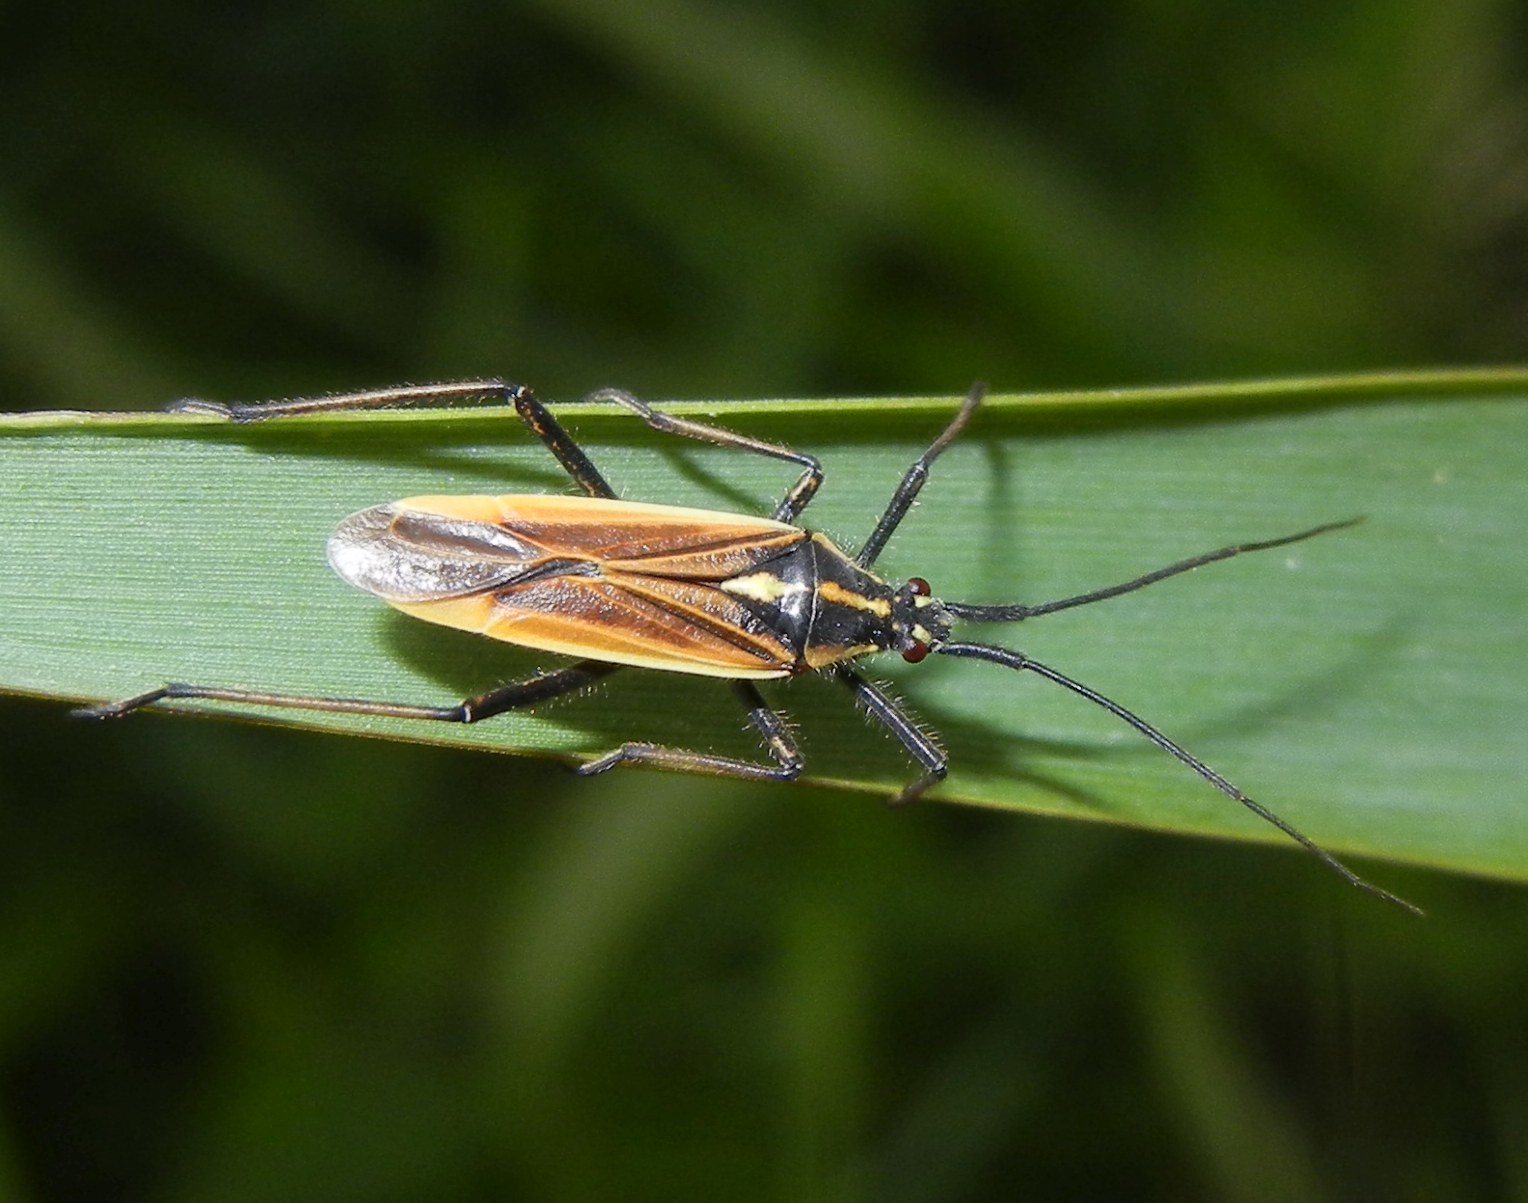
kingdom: Animalia
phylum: Arthropoda
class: Insecta
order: Hemiptera
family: Miridae
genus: Leptopterna
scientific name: Leptopterna dolabrata
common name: Meadow plant bug
